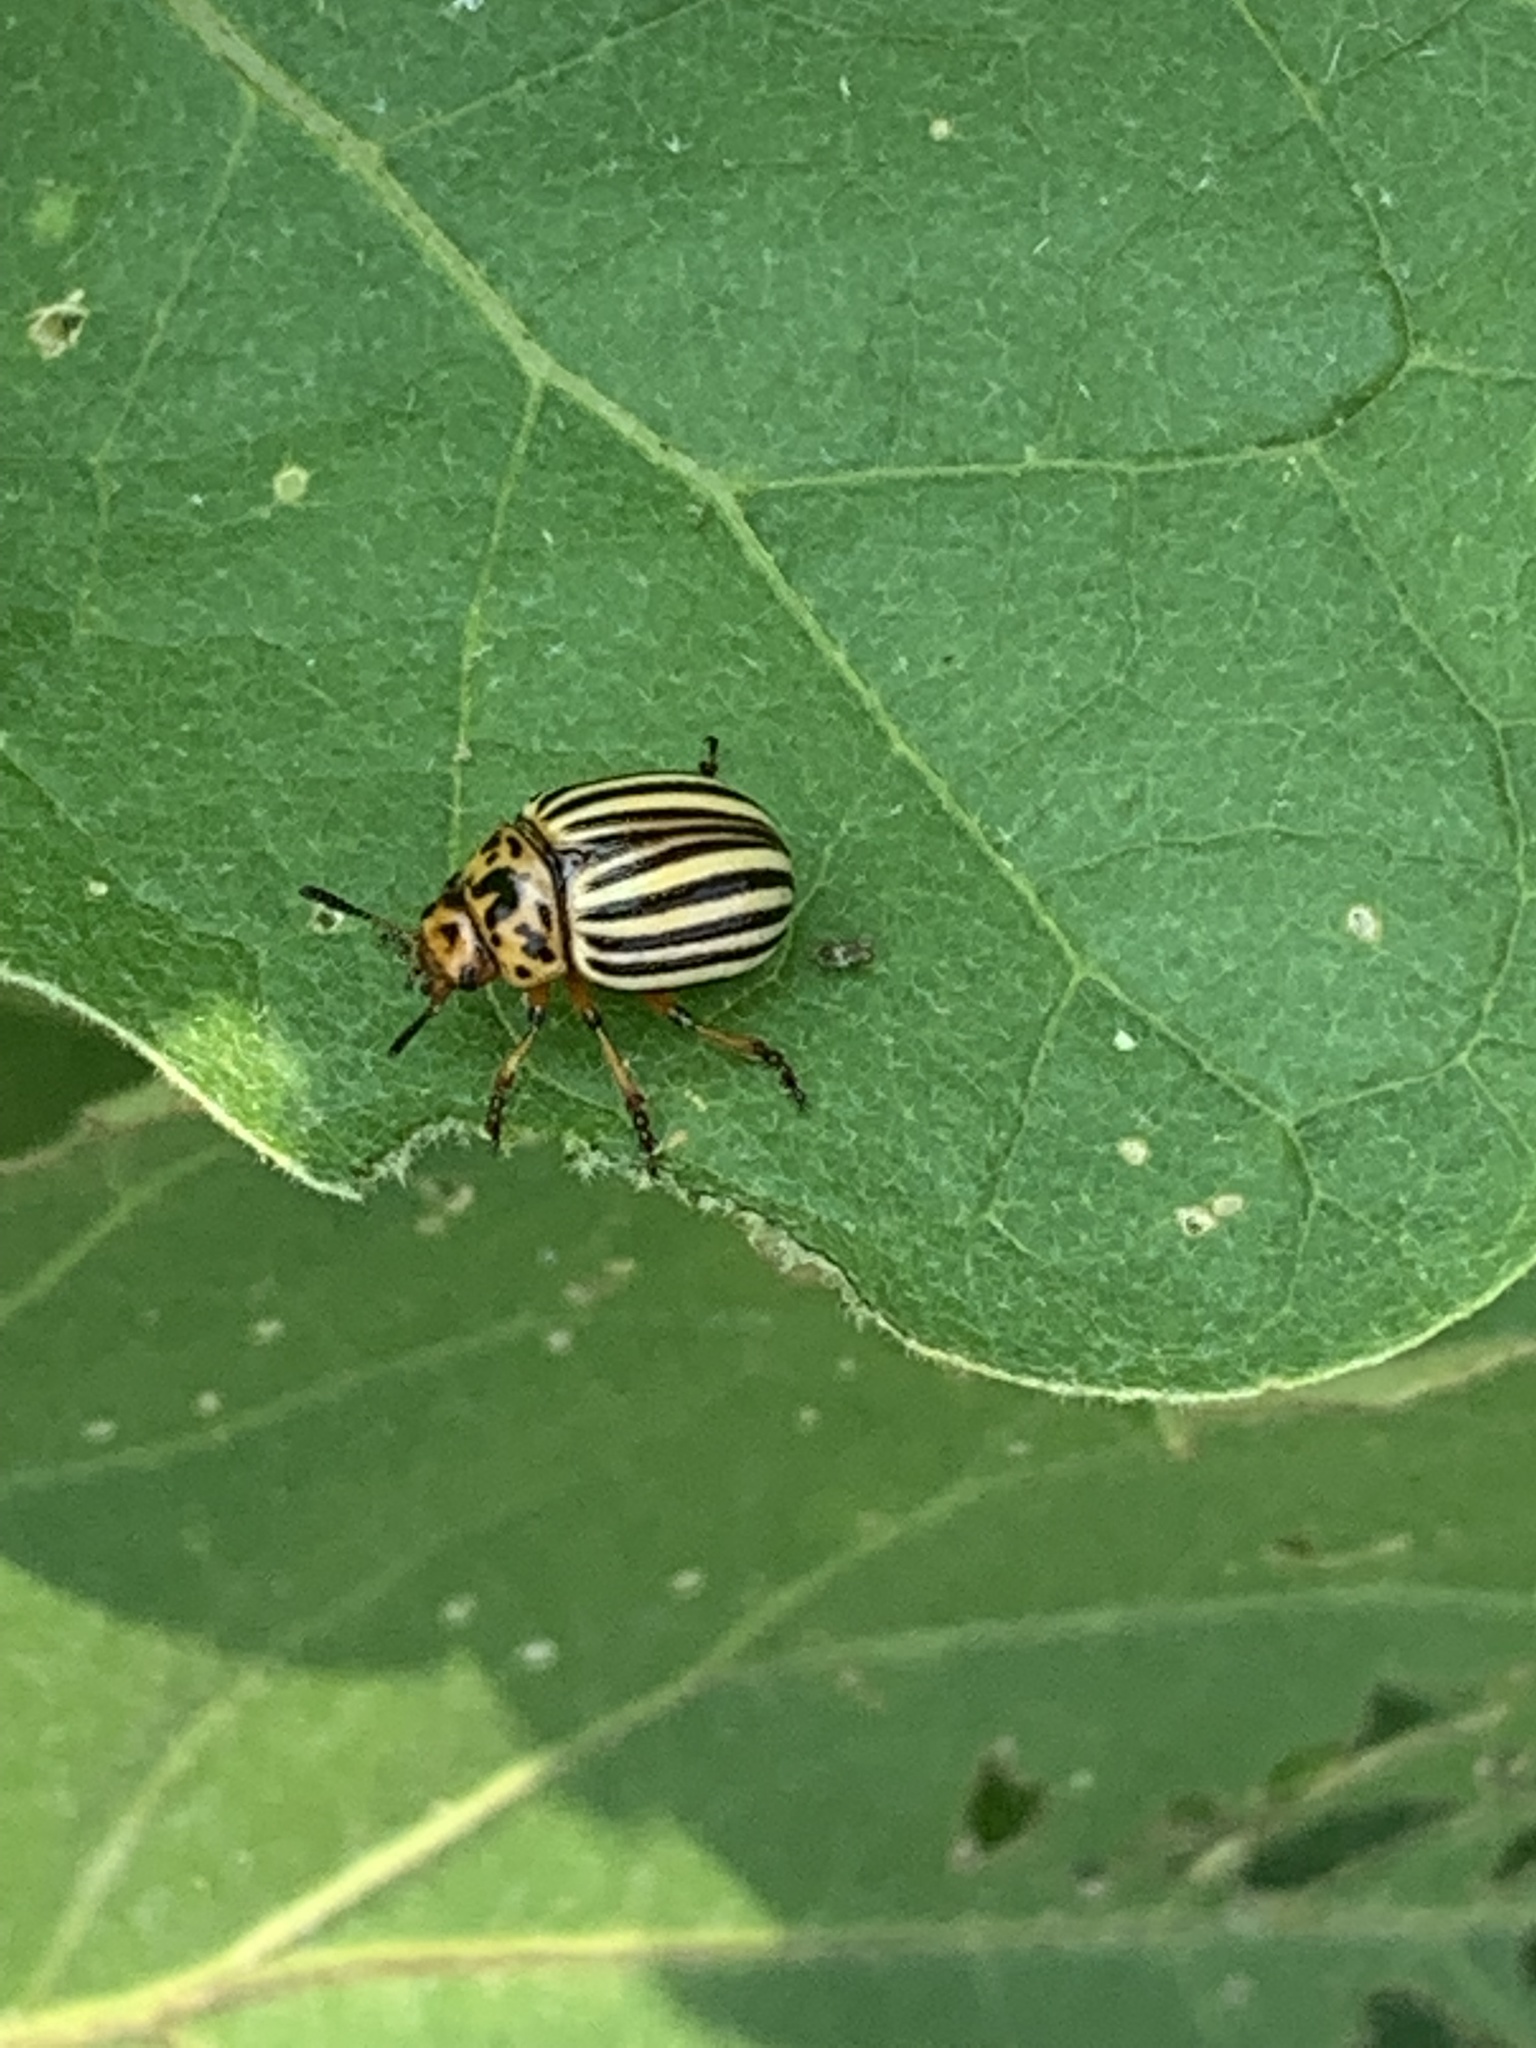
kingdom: Animalia
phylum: Arthropoda
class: Insecta
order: Coleoptera
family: Chrysomelidae
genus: Leptinotarsa
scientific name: Leptinotarsa decemlineata
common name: Colorado potato beetle
